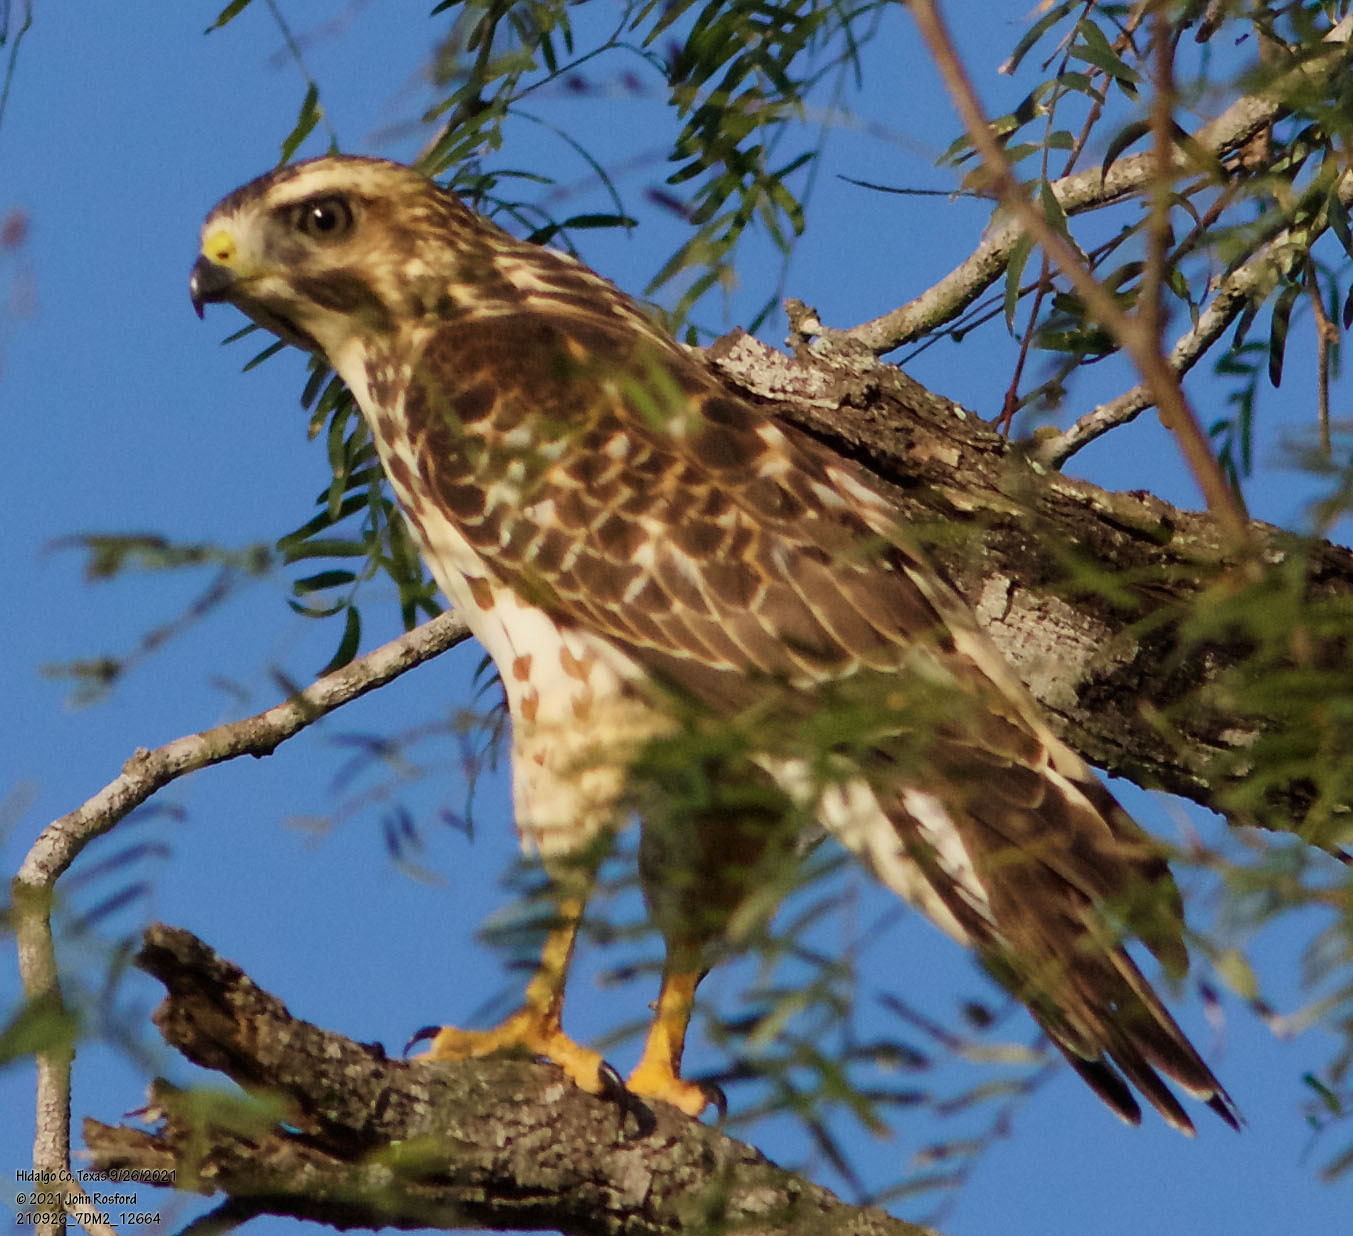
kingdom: Animalia
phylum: Chordata
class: Aves
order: Accipitriformes
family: Accipitridae
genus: Buteo
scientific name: Buteo platypterus
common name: Broad-winged hawk
